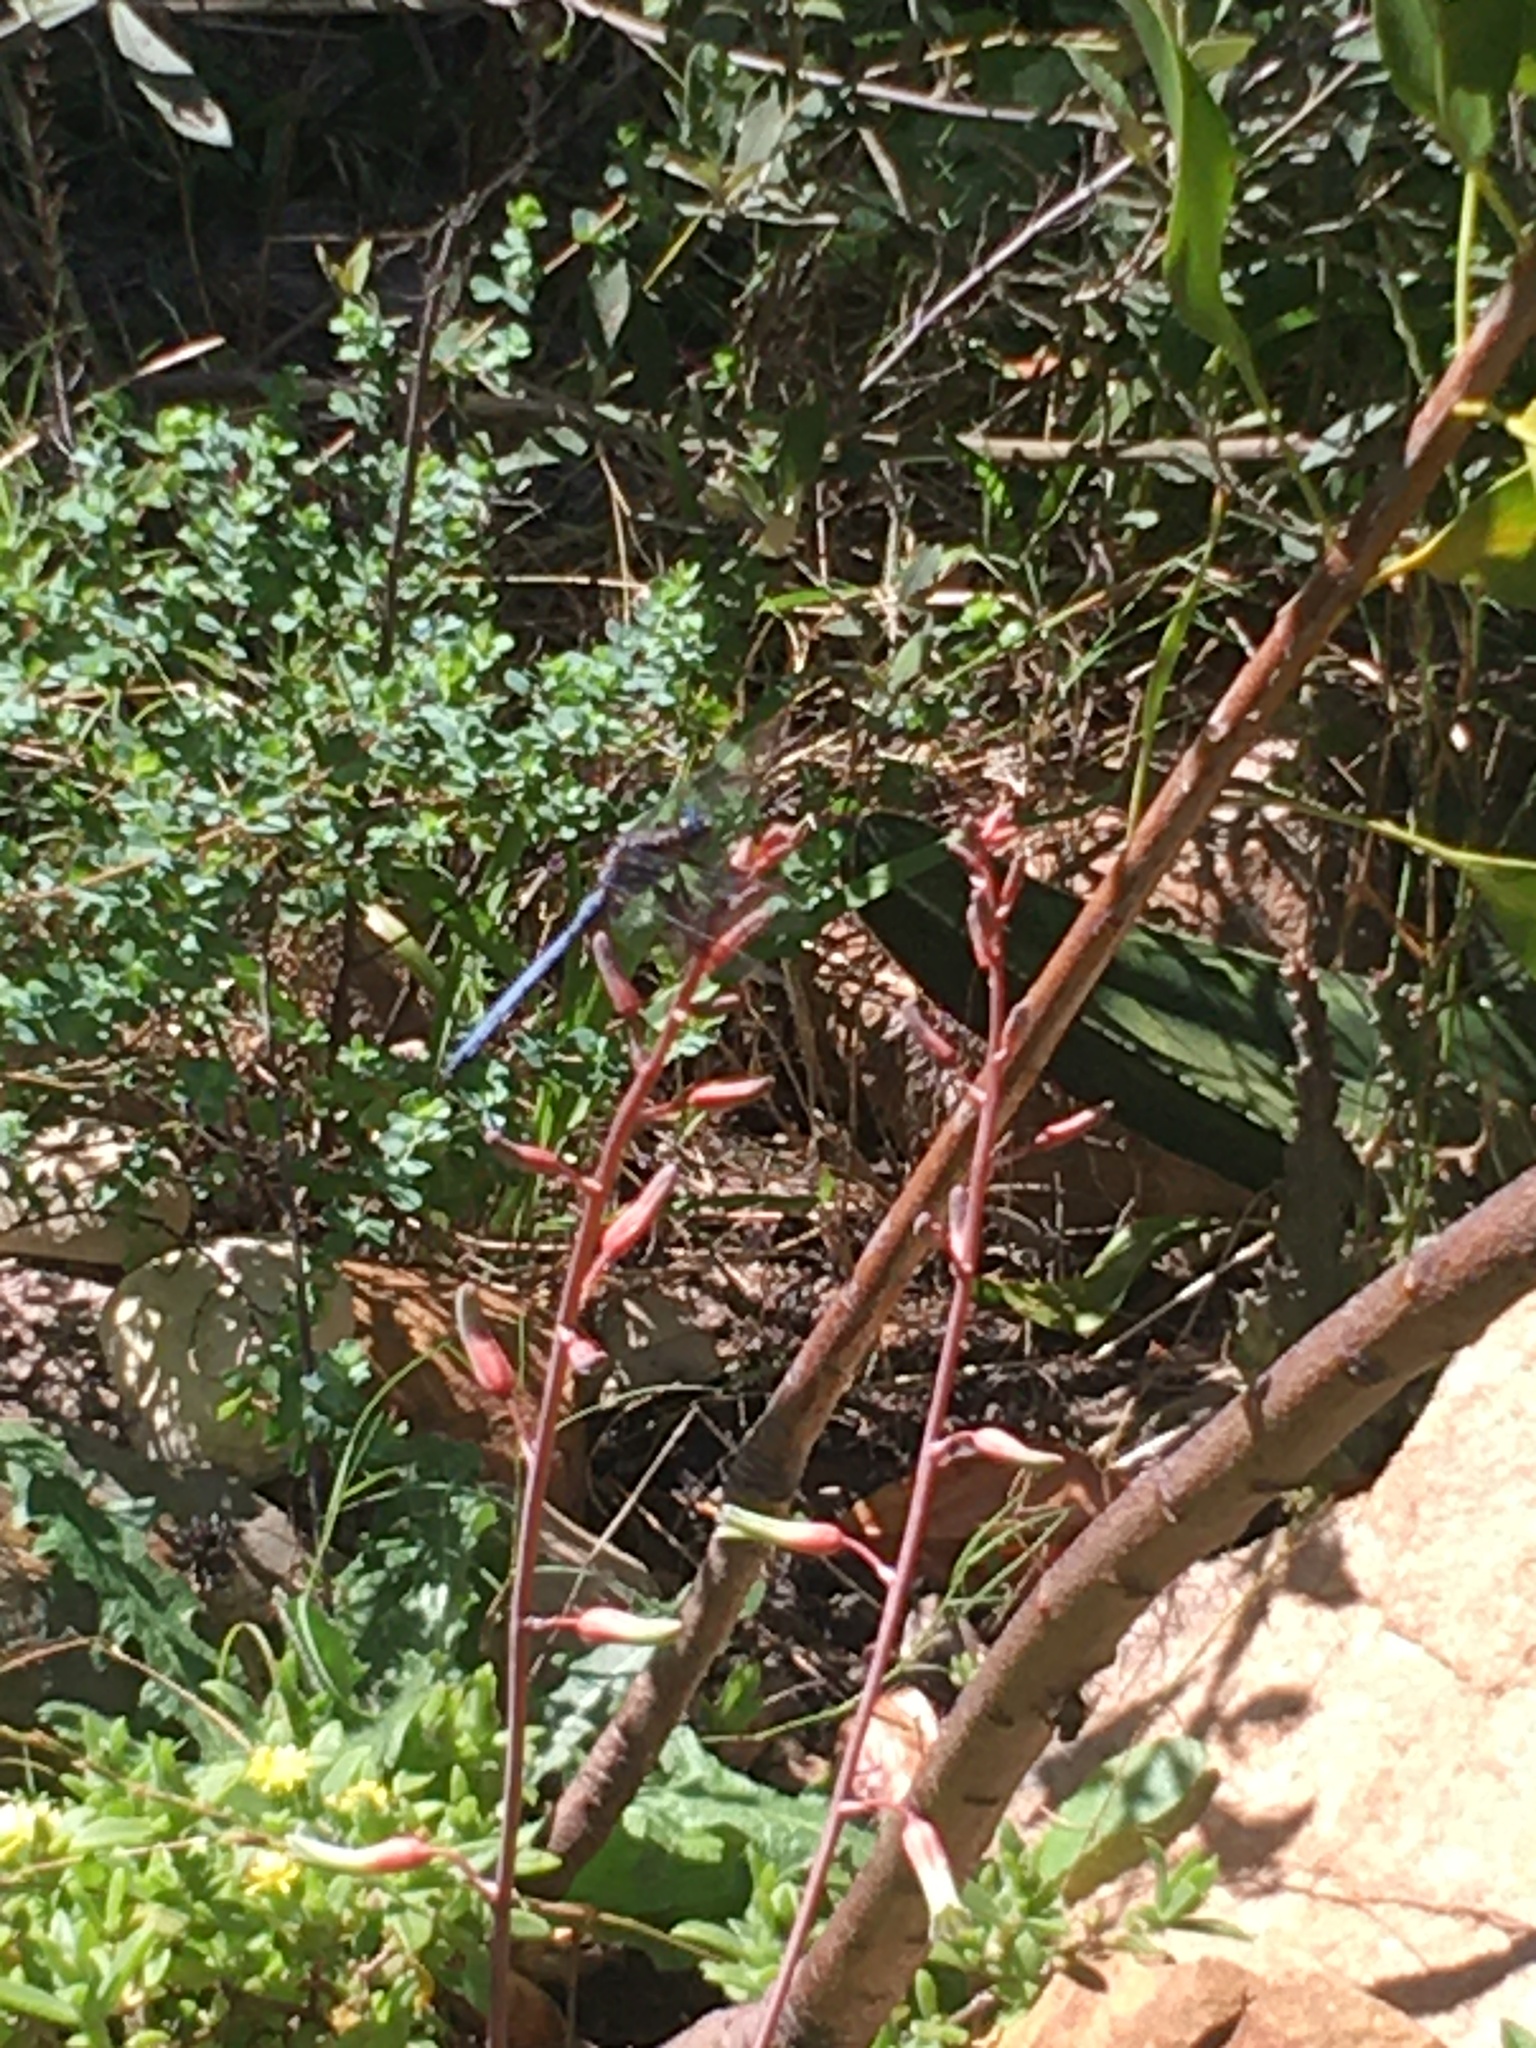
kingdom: Animalia
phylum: Arthropoda
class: Insecta
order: Odonata
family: Libellulidae
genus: Orthetrum
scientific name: Orthetrum julia
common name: Julia skimmer
